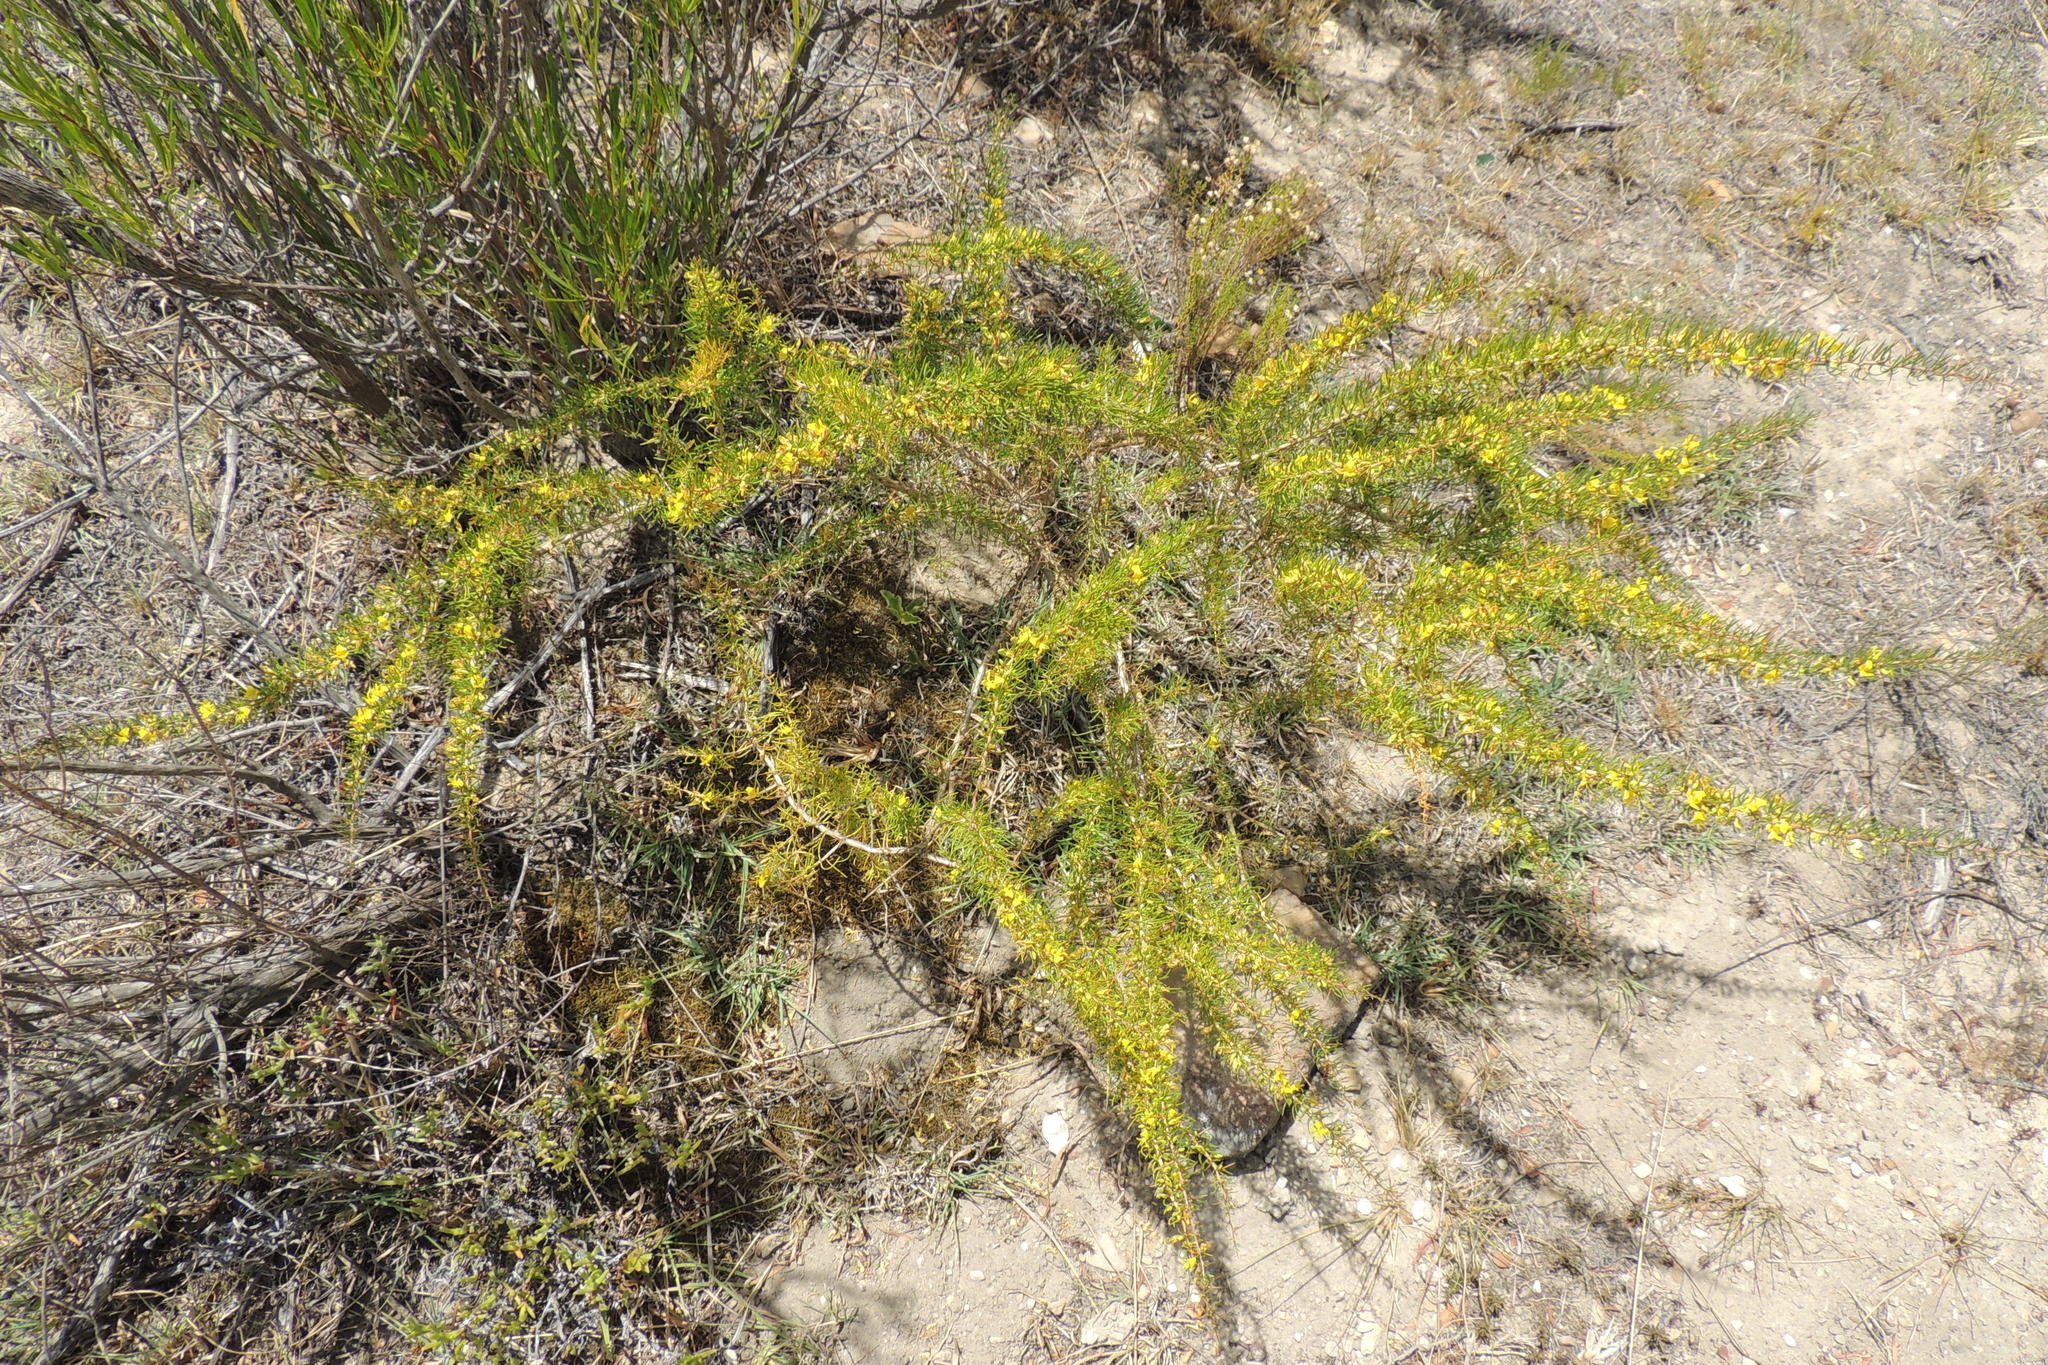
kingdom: Plantae
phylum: Tracheophyta
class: Magnoliopsida
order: Fabales
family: Fabaceae
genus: Aspalathus
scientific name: Aspalathus spinosa
